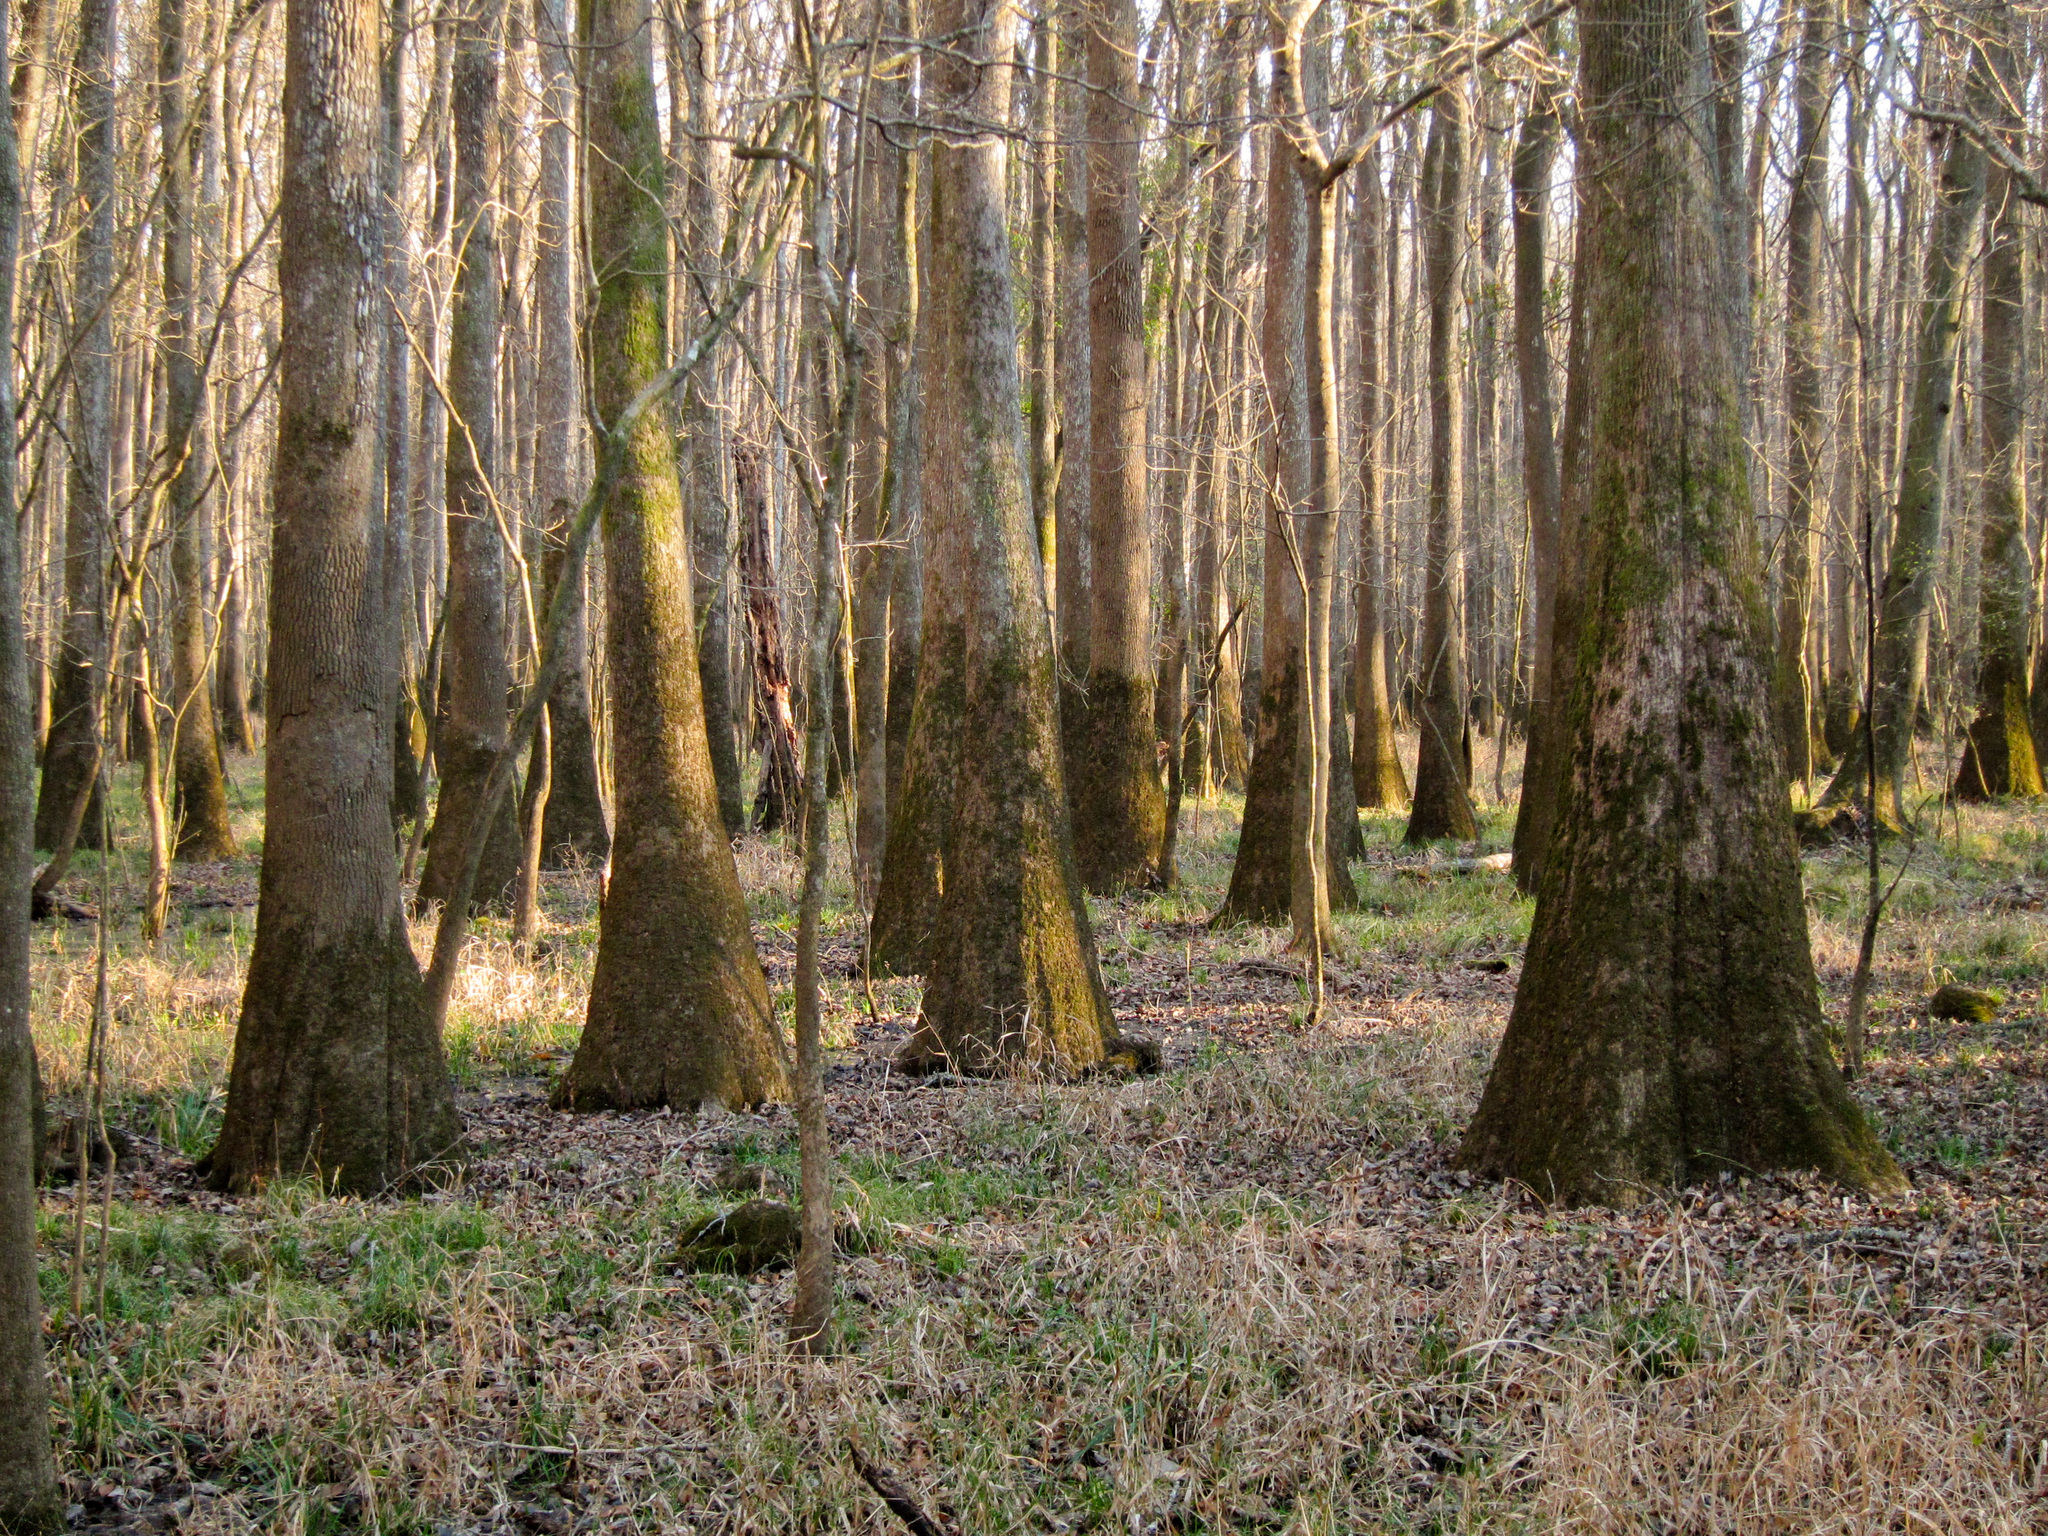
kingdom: Plantae
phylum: Tracheophyta
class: Magnoliopsida
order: Cornales
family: Nyssaceae
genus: Nyssa
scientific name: Nyssa aquatica
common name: Swamp tupelo
